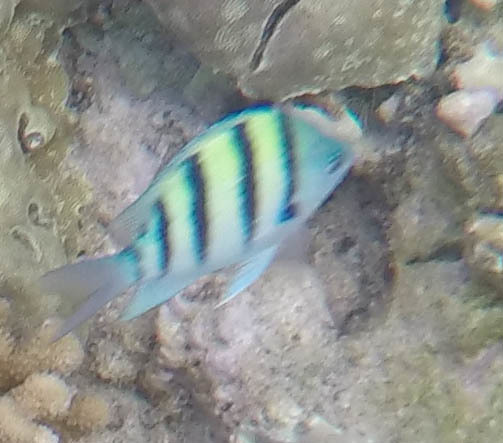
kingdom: Animalia
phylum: Chordata
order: Perciformes
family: Pomacentridae
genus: Abudefduf
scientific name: Abudefduf abdominalis
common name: Green damselfish
